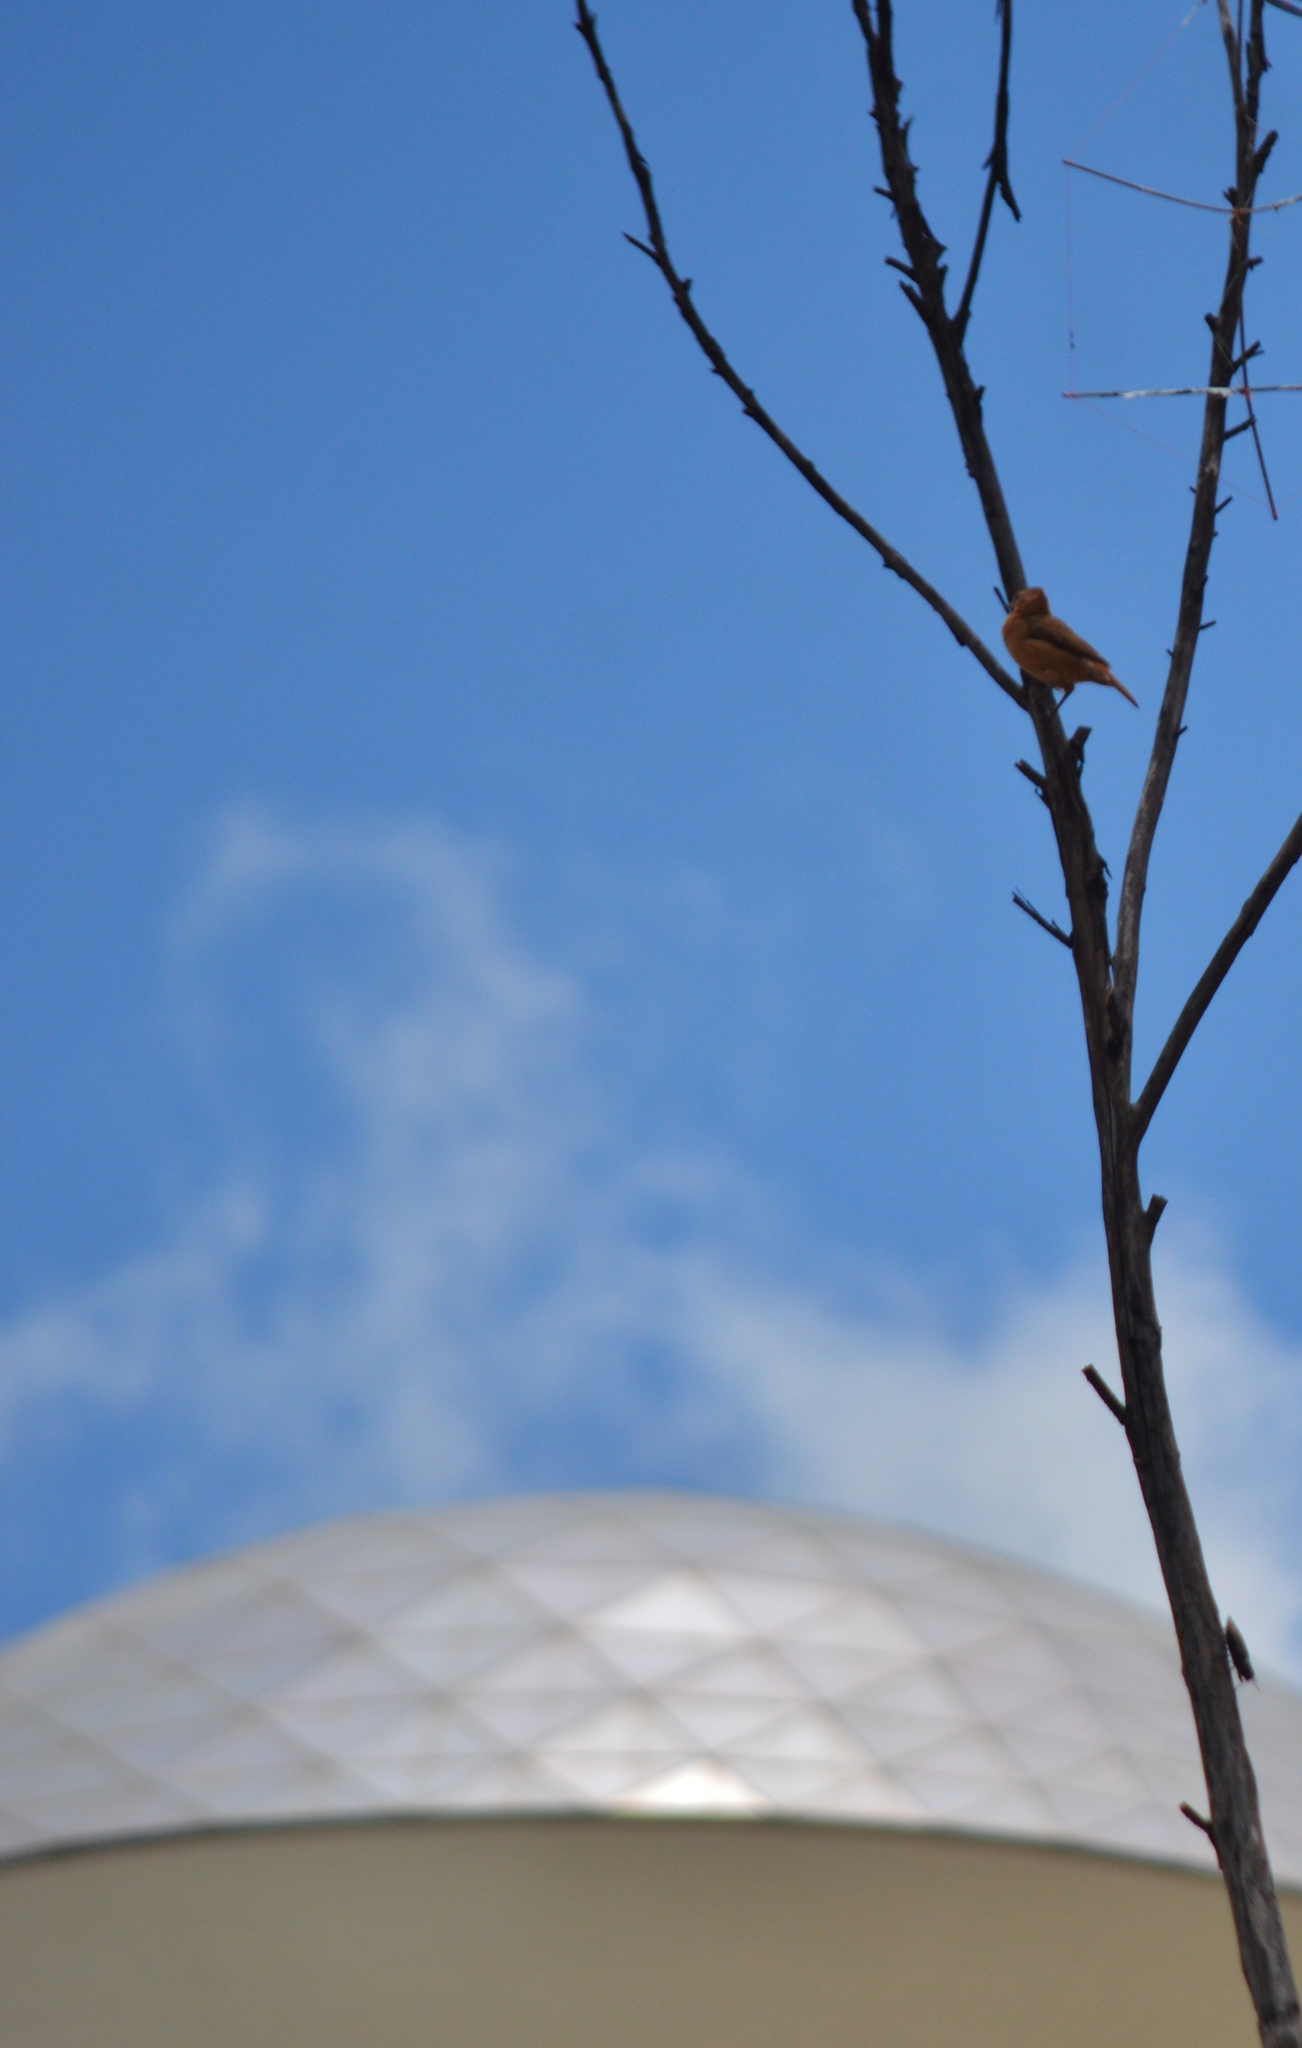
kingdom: Animalia
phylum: Chordata
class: Aves
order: Passeriformes
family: Furnariidae
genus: Furnarius
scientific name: Furnarius rufus
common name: Rufous hornero
